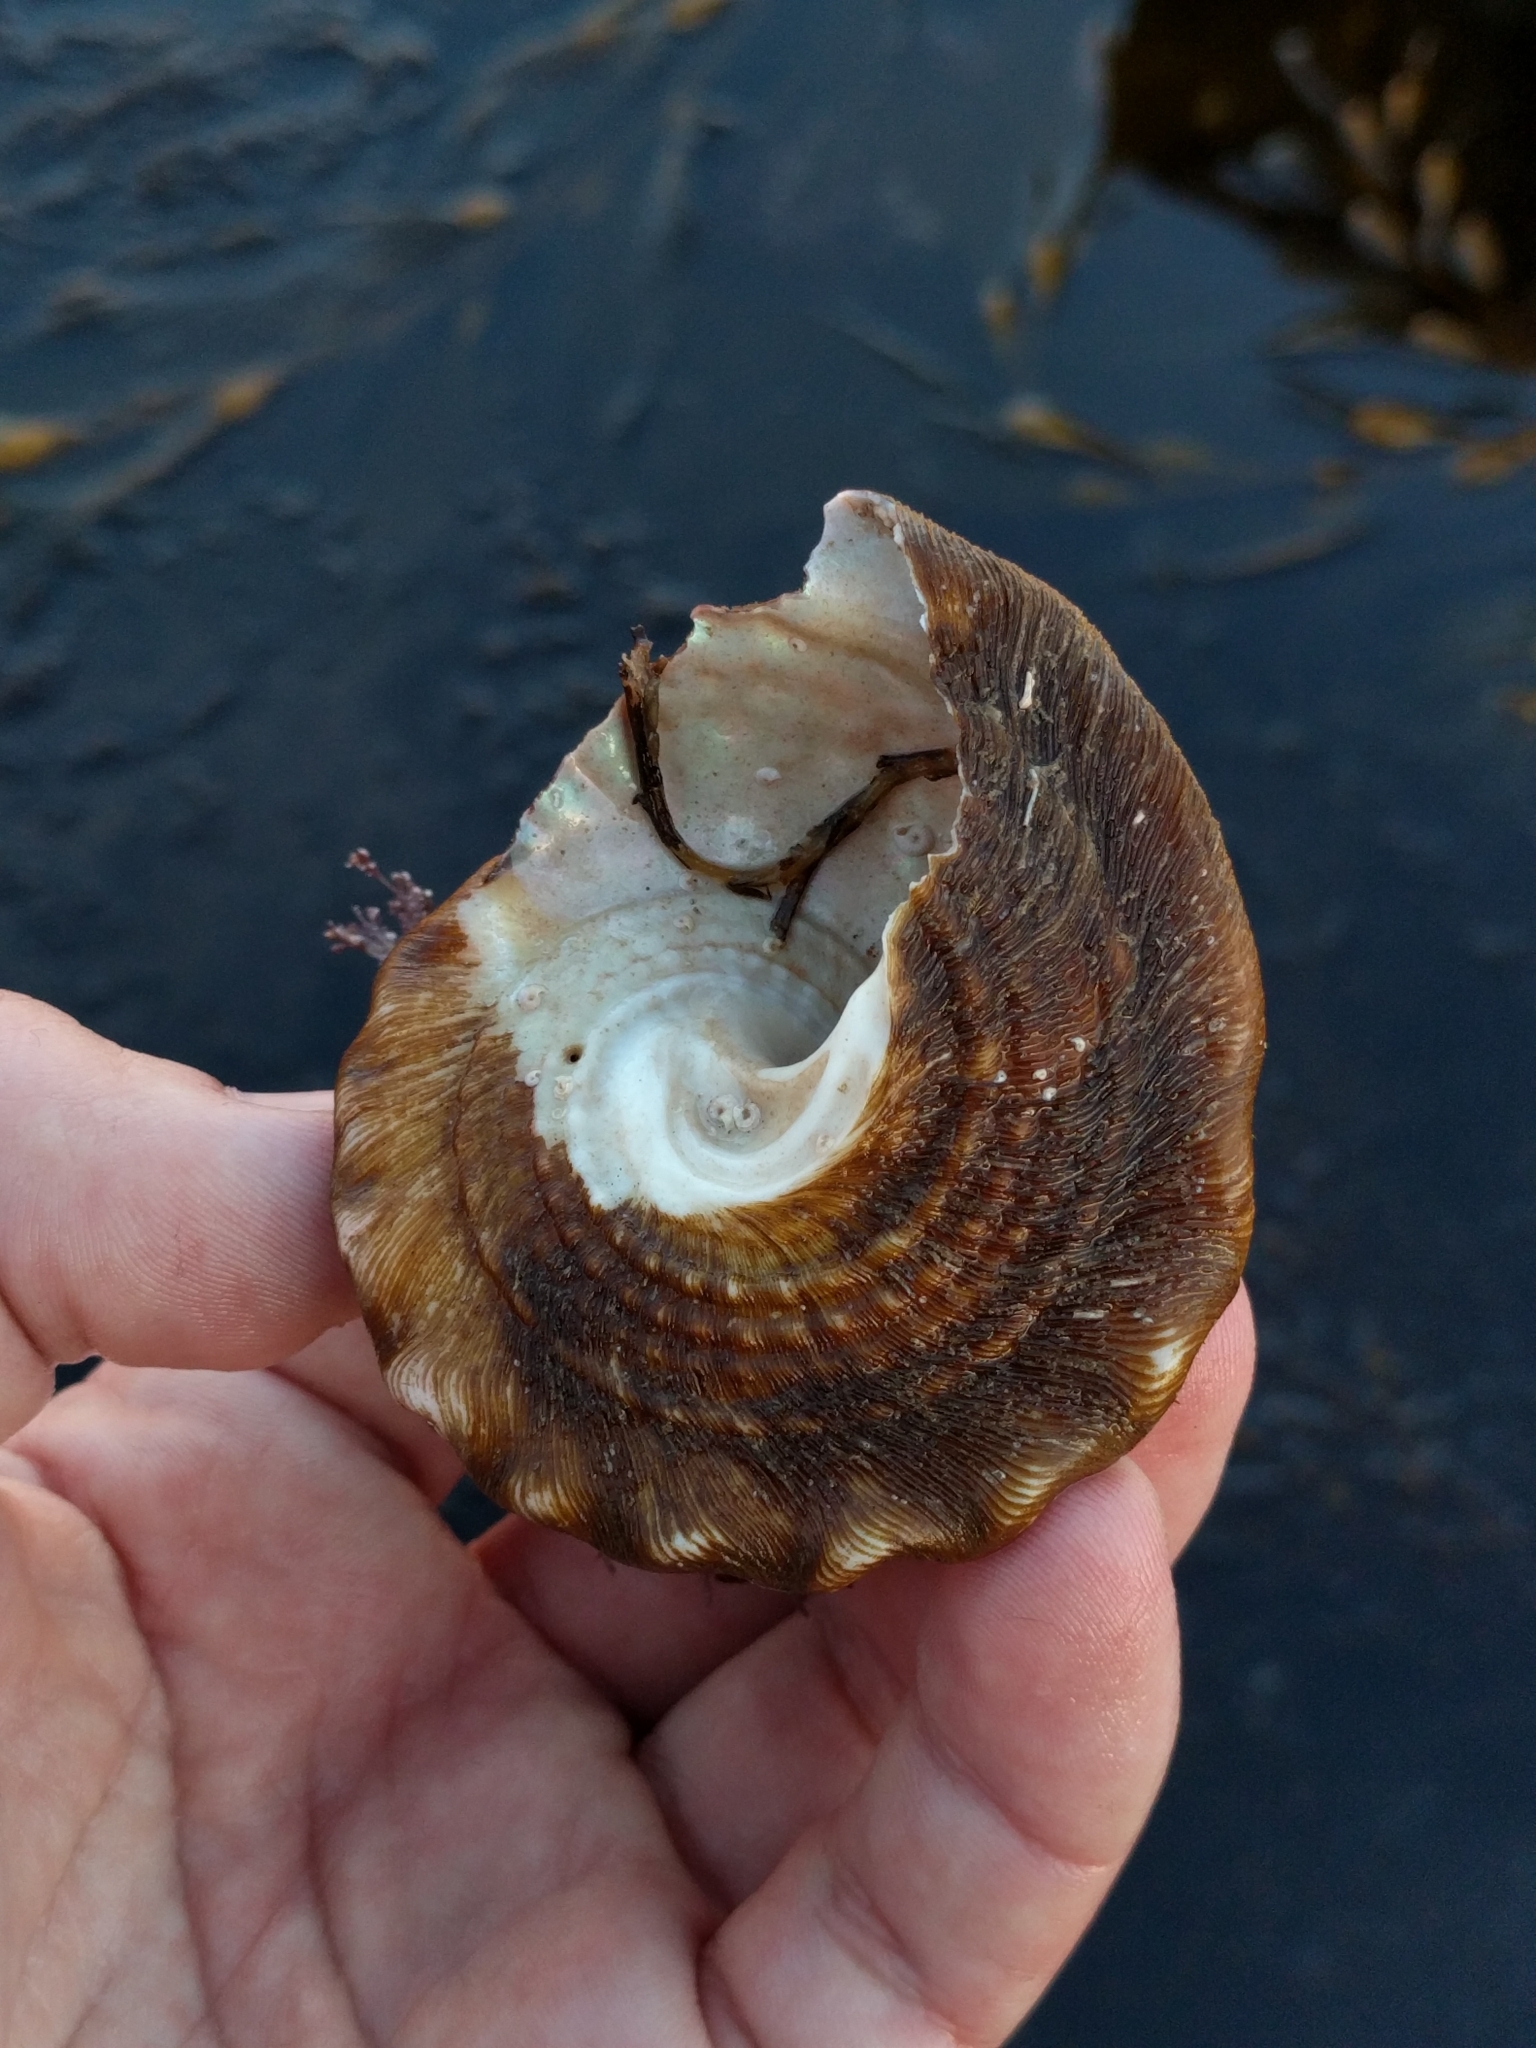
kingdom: Animalia
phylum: Mollusca
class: Gastropoda
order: Trochida
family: Turbinidae
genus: Megastraea
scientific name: Megastraea undosa
